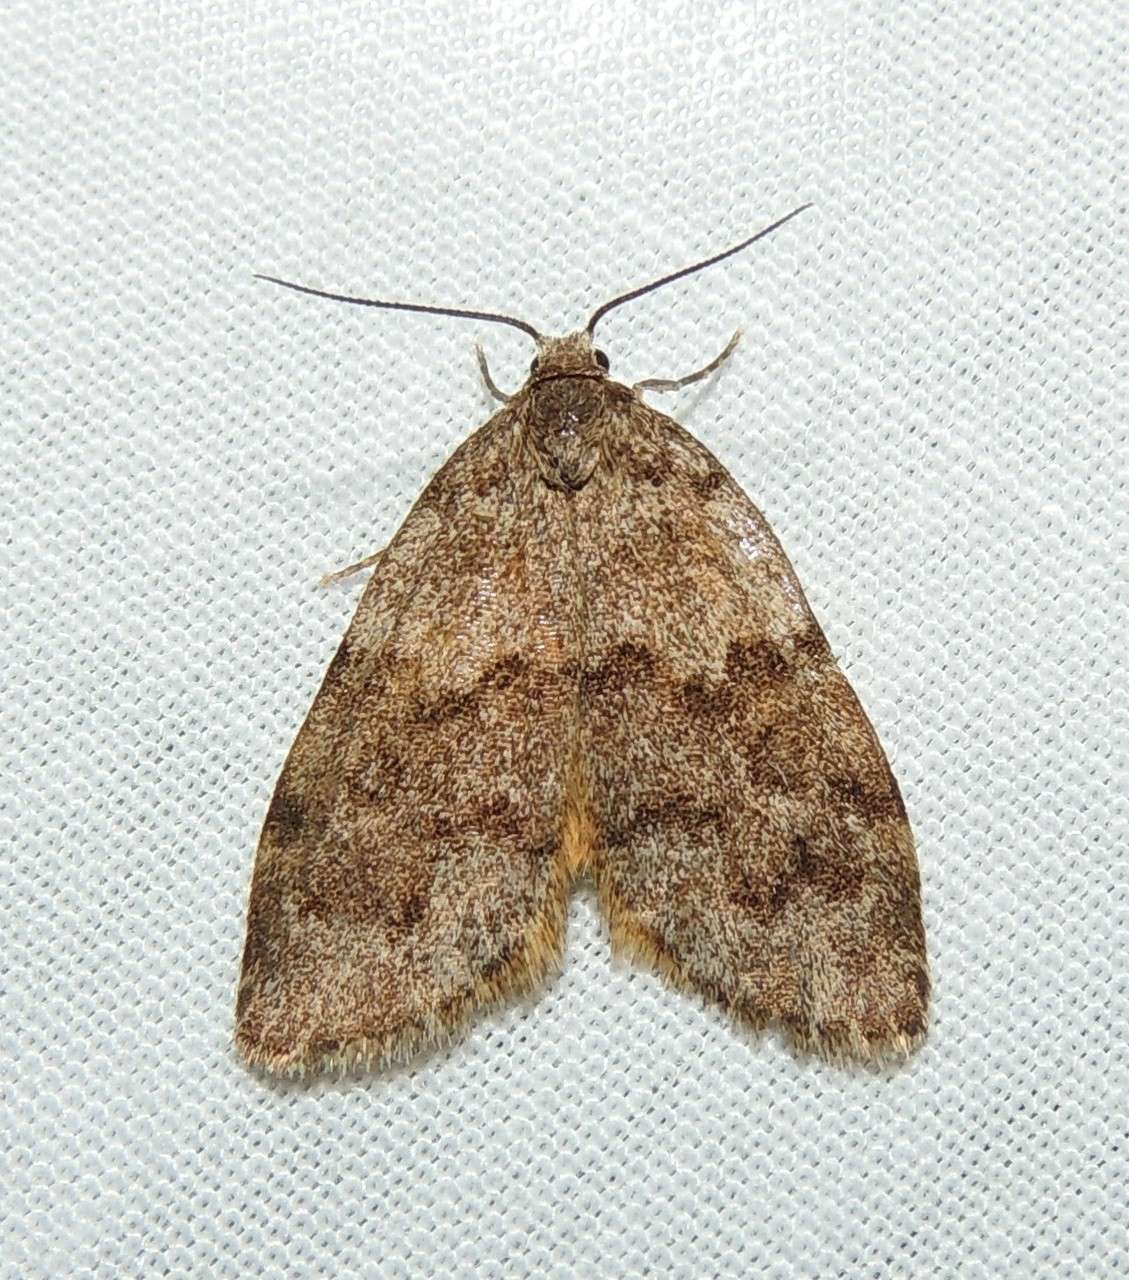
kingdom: Animalia
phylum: Arthropoda
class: Insecta
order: Lepidoptera
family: Erebidae
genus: Halone
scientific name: Halone consolatrix
